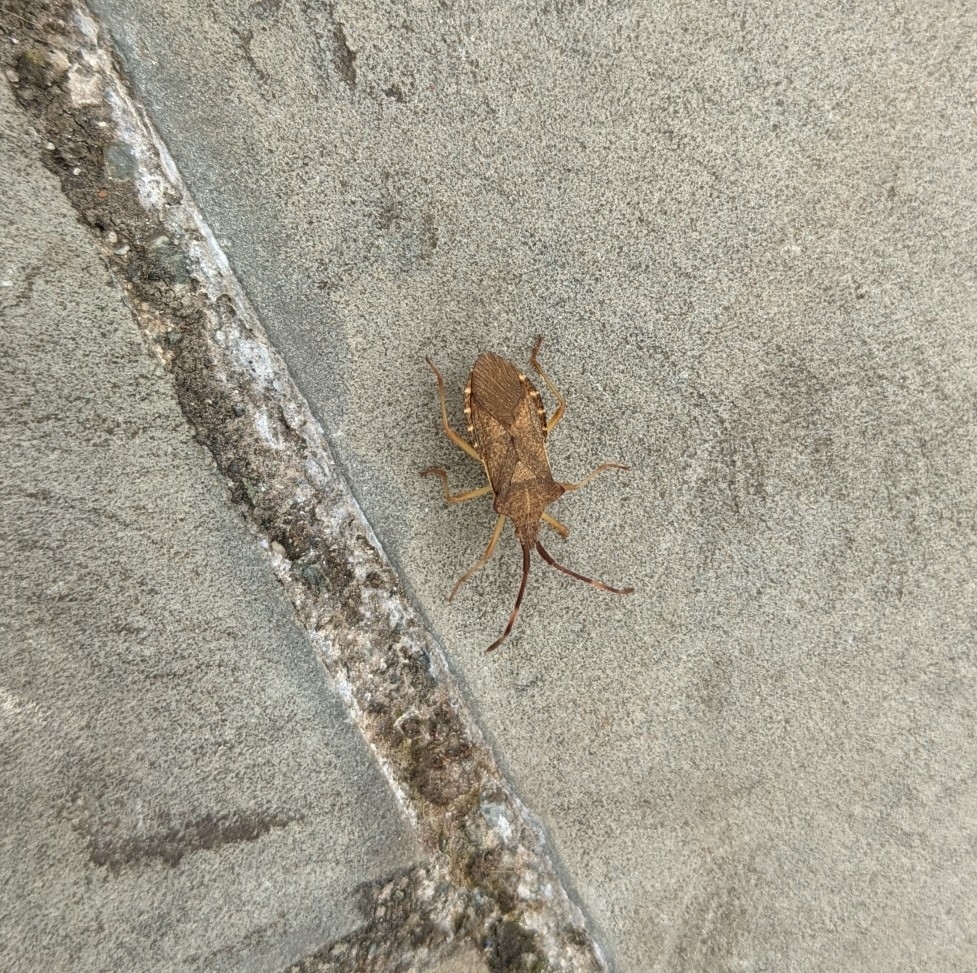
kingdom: Animalia
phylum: Arthropoda
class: Insecta
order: Hemiptera
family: Coreidae
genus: Gonocerus
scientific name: Gonocerus acuteangulatus
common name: Box bug
